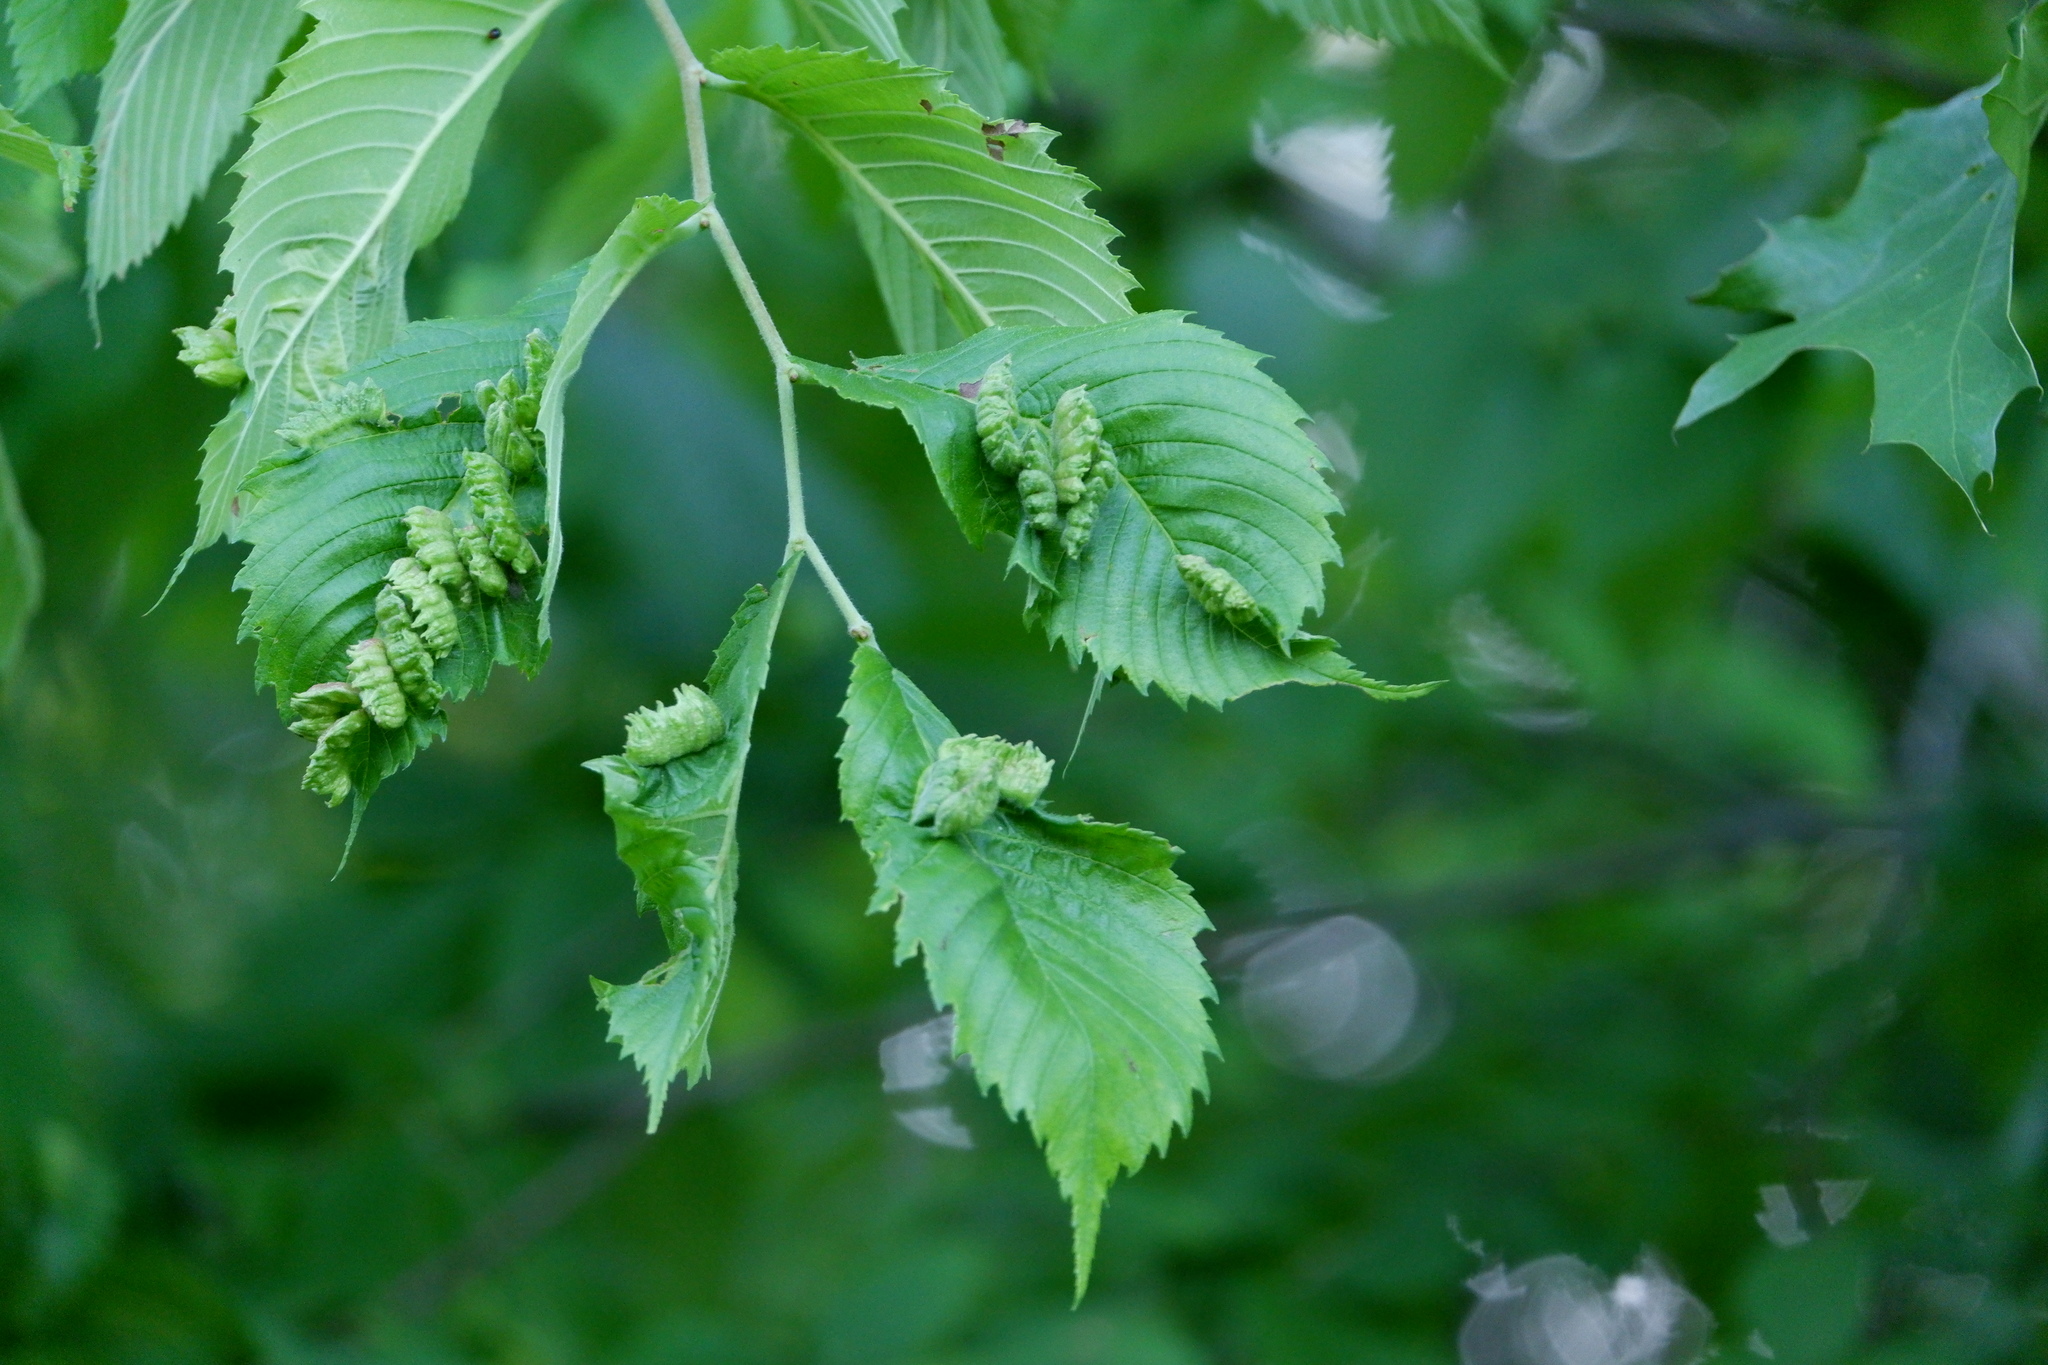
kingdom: Animalia
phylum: Arthropoda
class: Insecta
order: Hemiptera
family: Aphididae
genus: Colopha
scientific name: Colopha ulmicola
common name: Elm cockscombgall aphid
